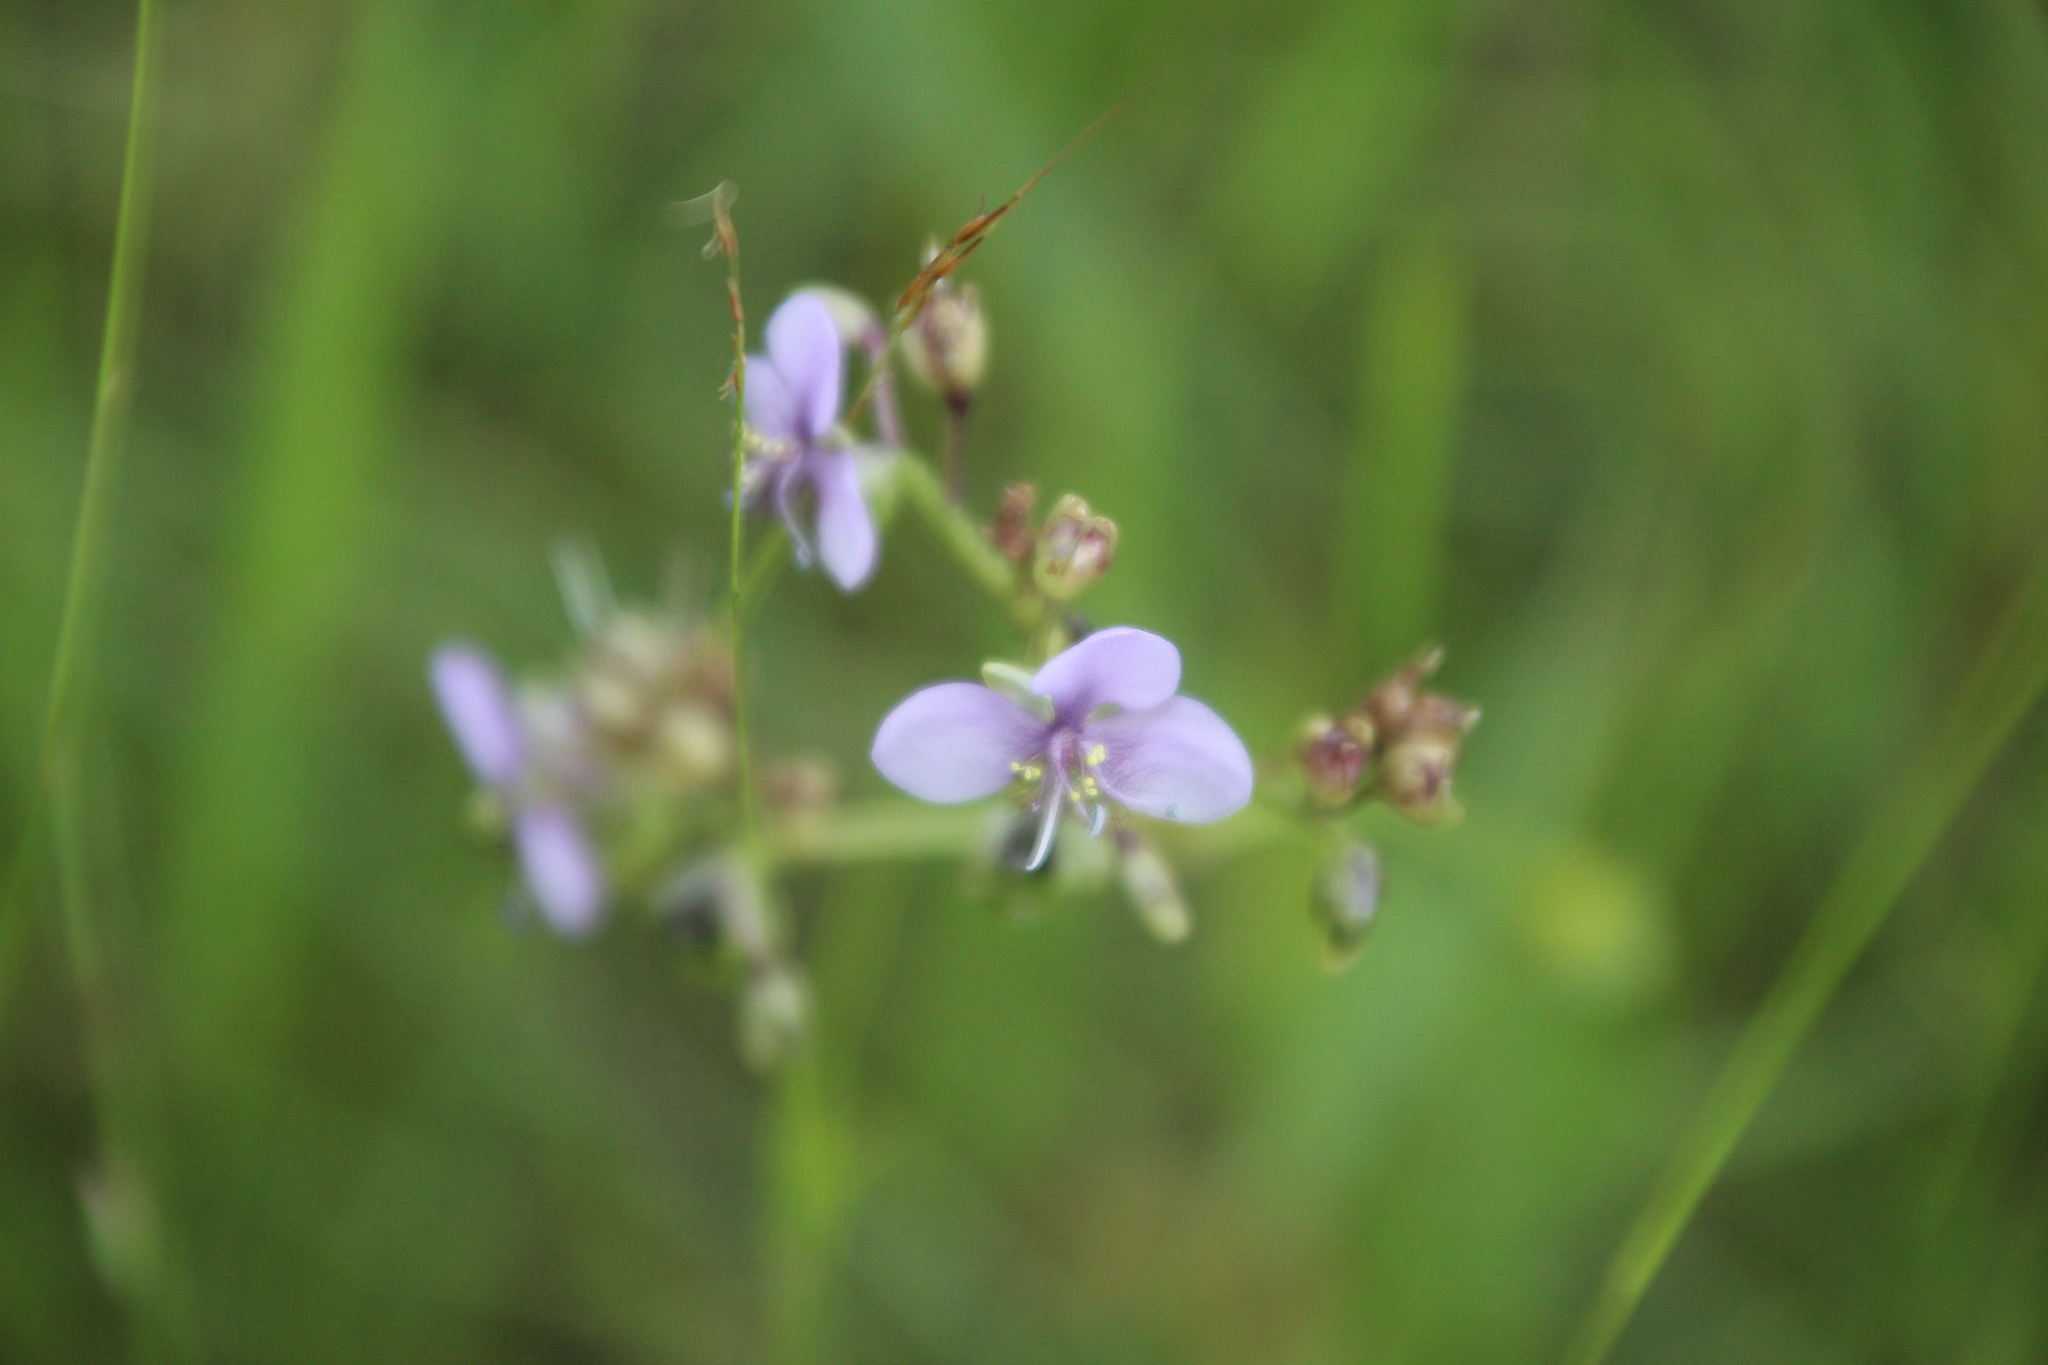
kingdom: Plantae
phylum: Tracheophyta
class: Liliopsida
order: Commelinales
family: Commelinaceae
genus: Murdannia
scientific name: Murdannia simplex
